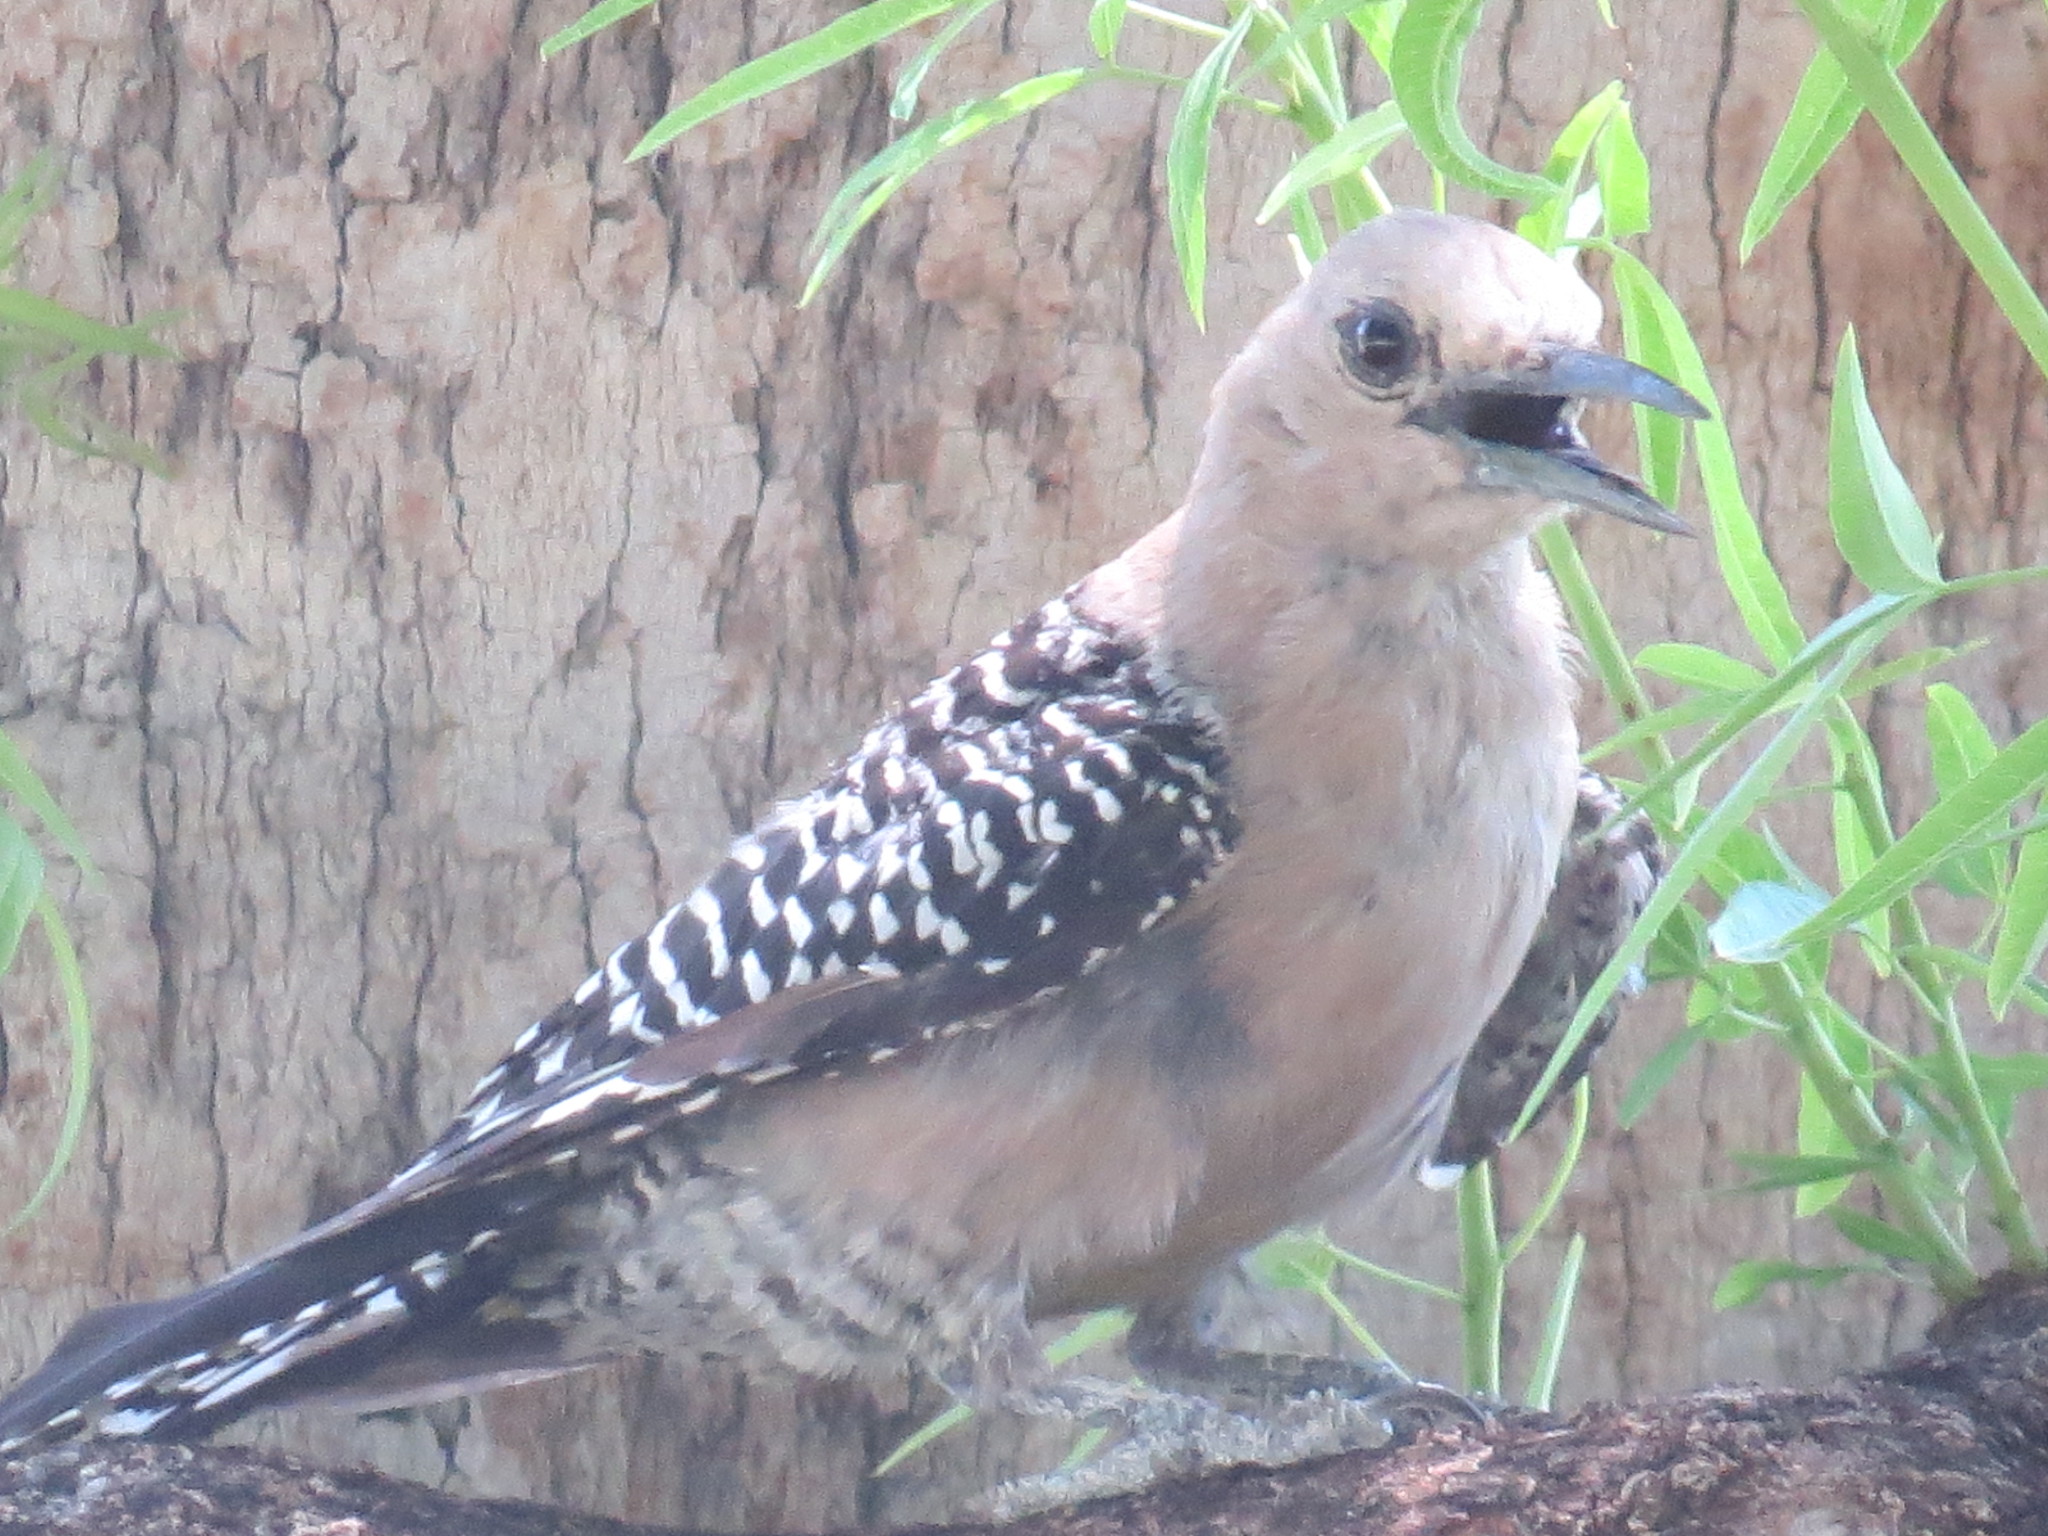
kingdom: Animalia
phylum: Chordata
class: Aves
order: Piciformes
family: Picidae
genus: Melanerpes
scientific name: Melanerpes uropygialis
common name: Gila woodpecker
